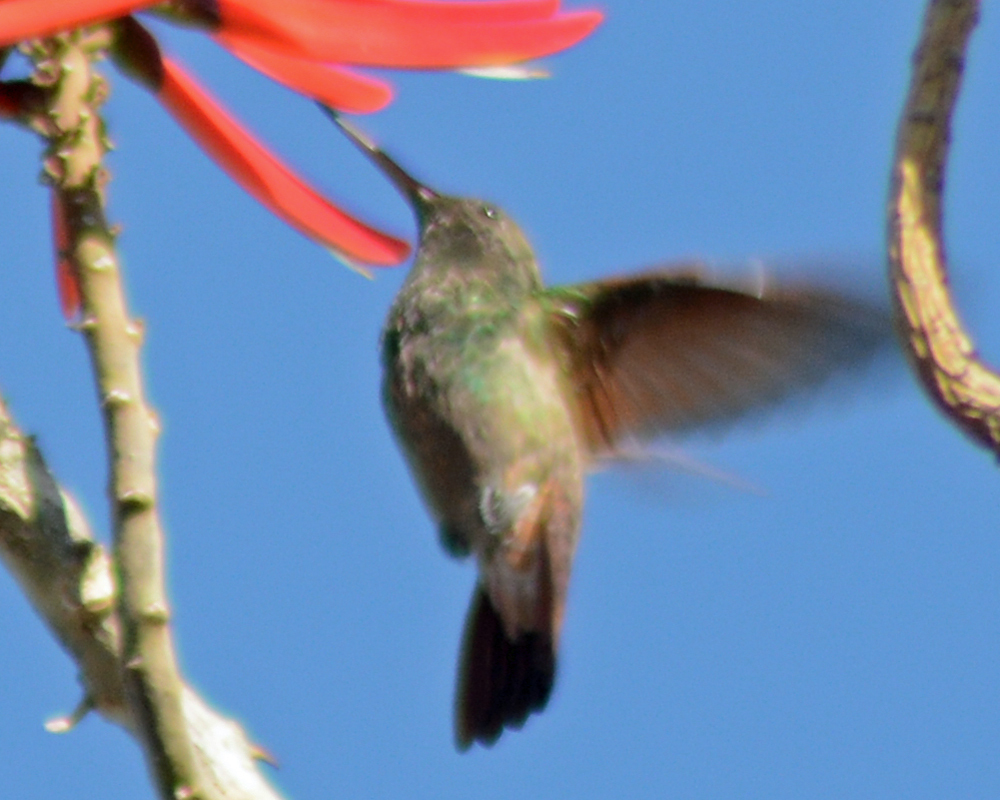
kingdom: Animalia
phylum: Chordata
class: Aves
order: Apodiformes
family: Trochilidae
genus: Saucerottia
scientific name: Saucerottia beryllina
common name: Berylline hummingbird
